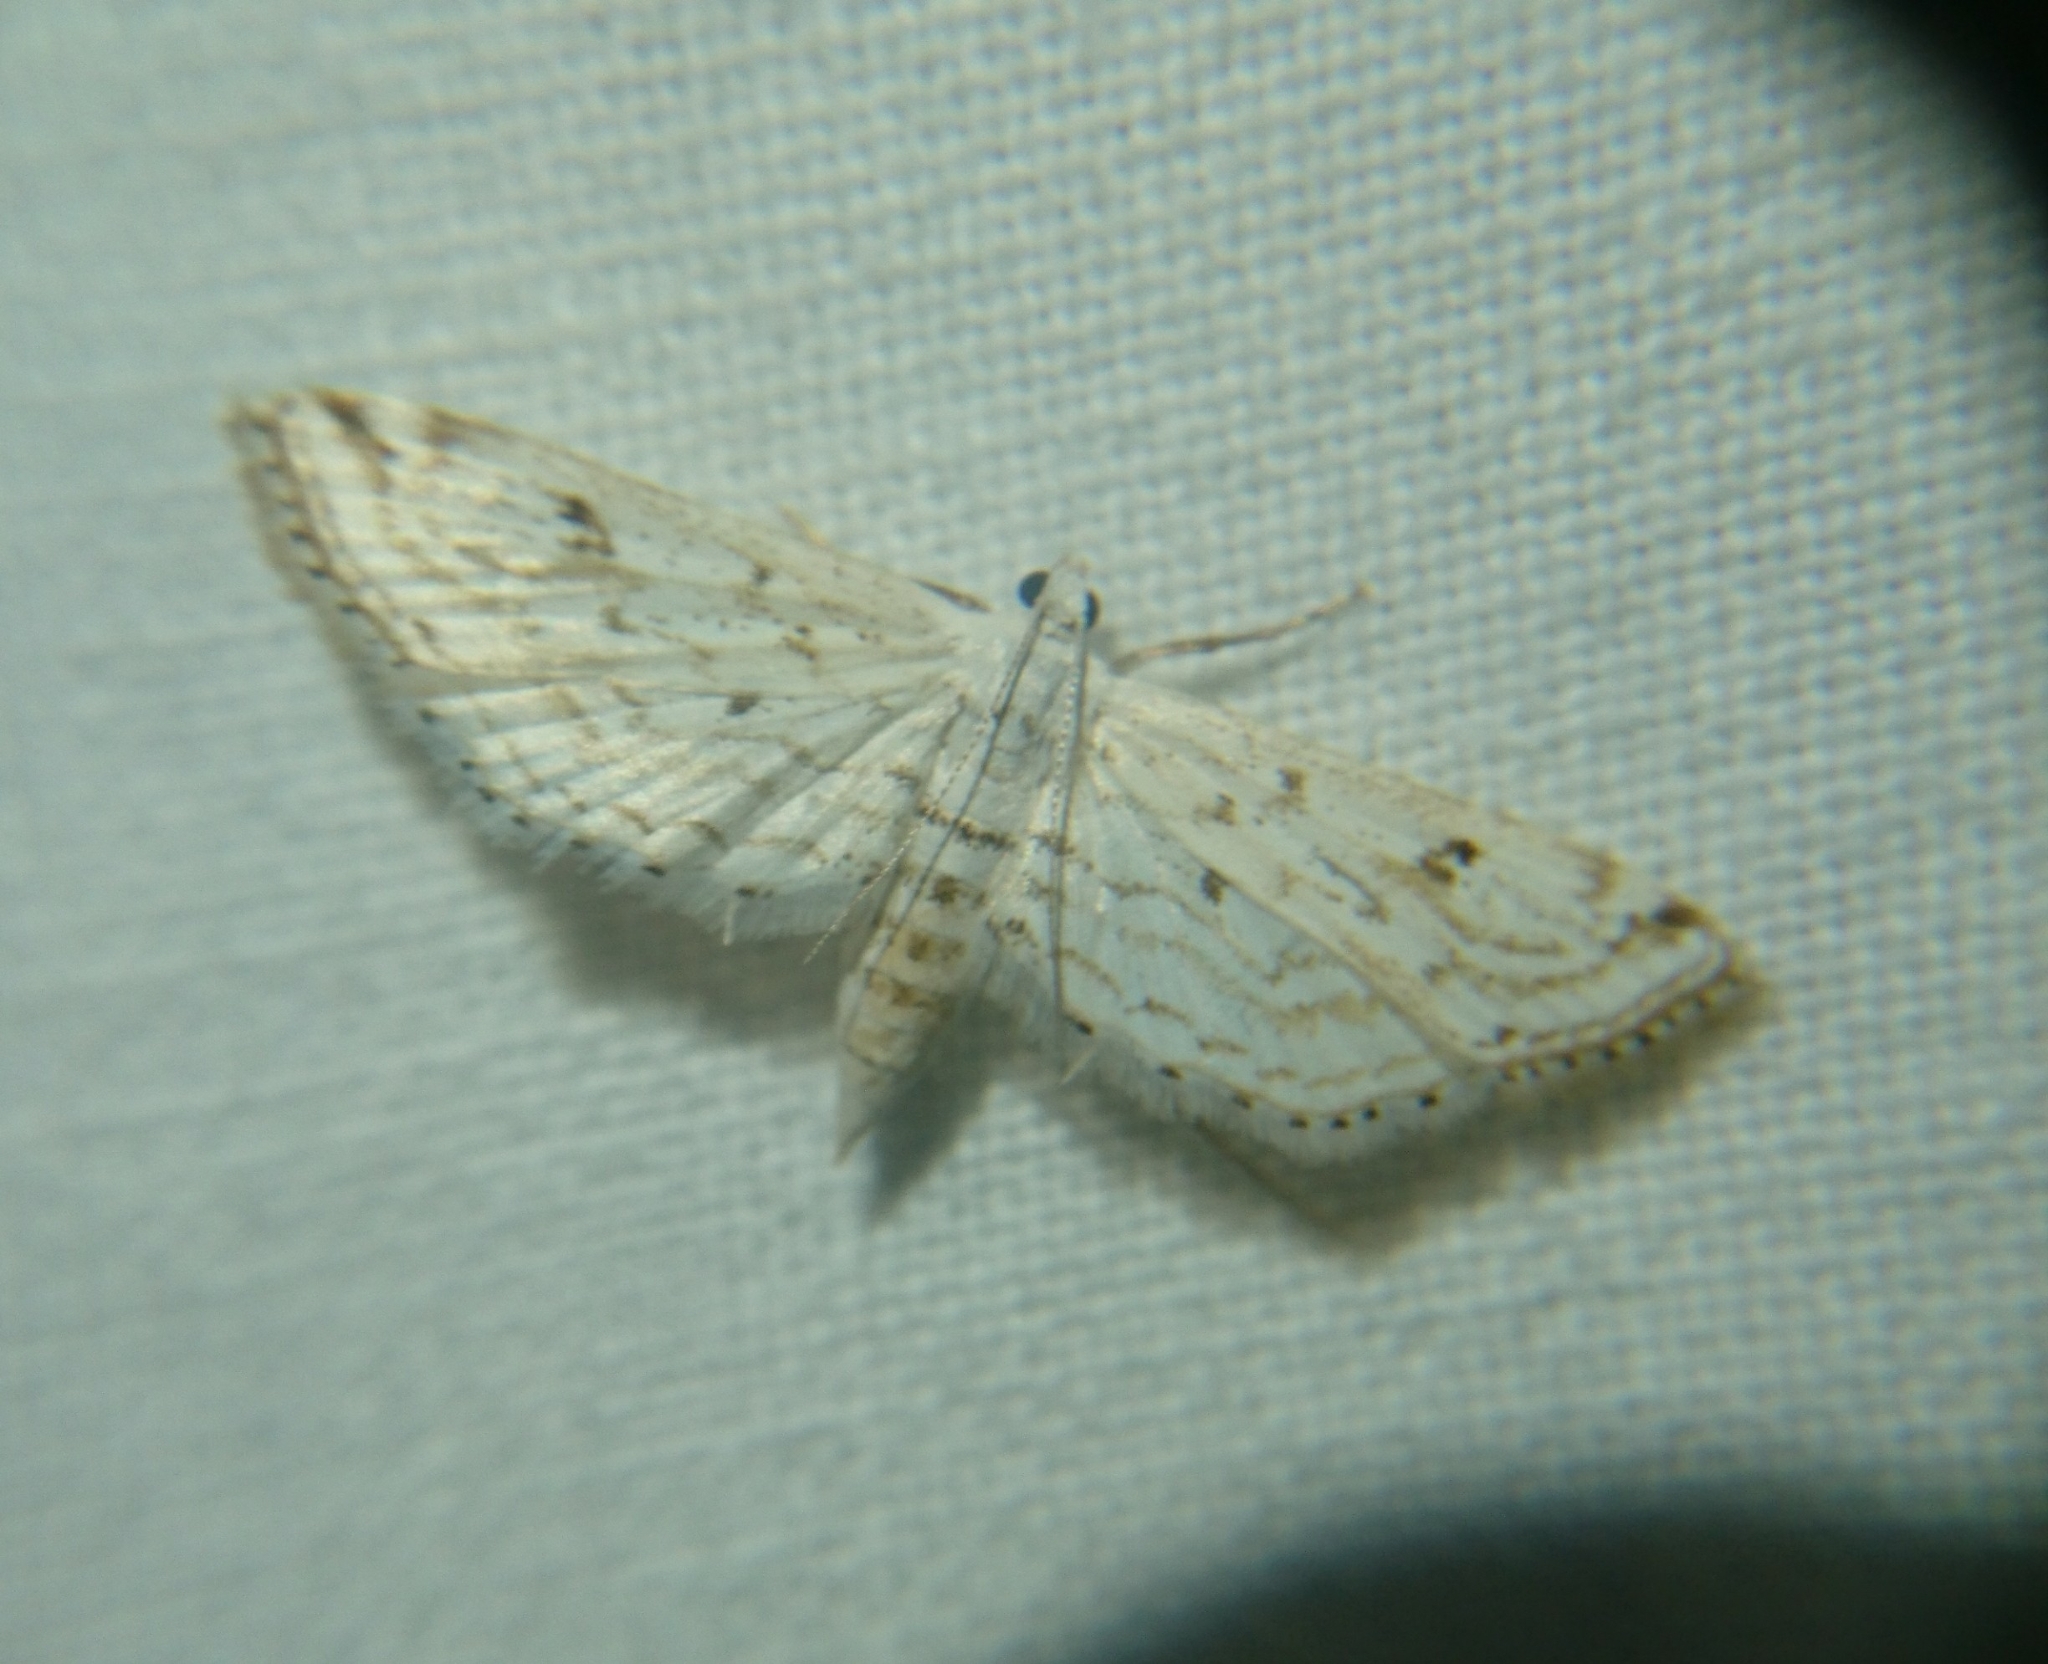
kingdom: Animalia
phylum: Arthropoda
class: Insecta
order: Lepidoptera
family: Crambidae
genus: Parapoynx
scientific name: Parapoynx allionealis
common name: Bladderwort casemaker
